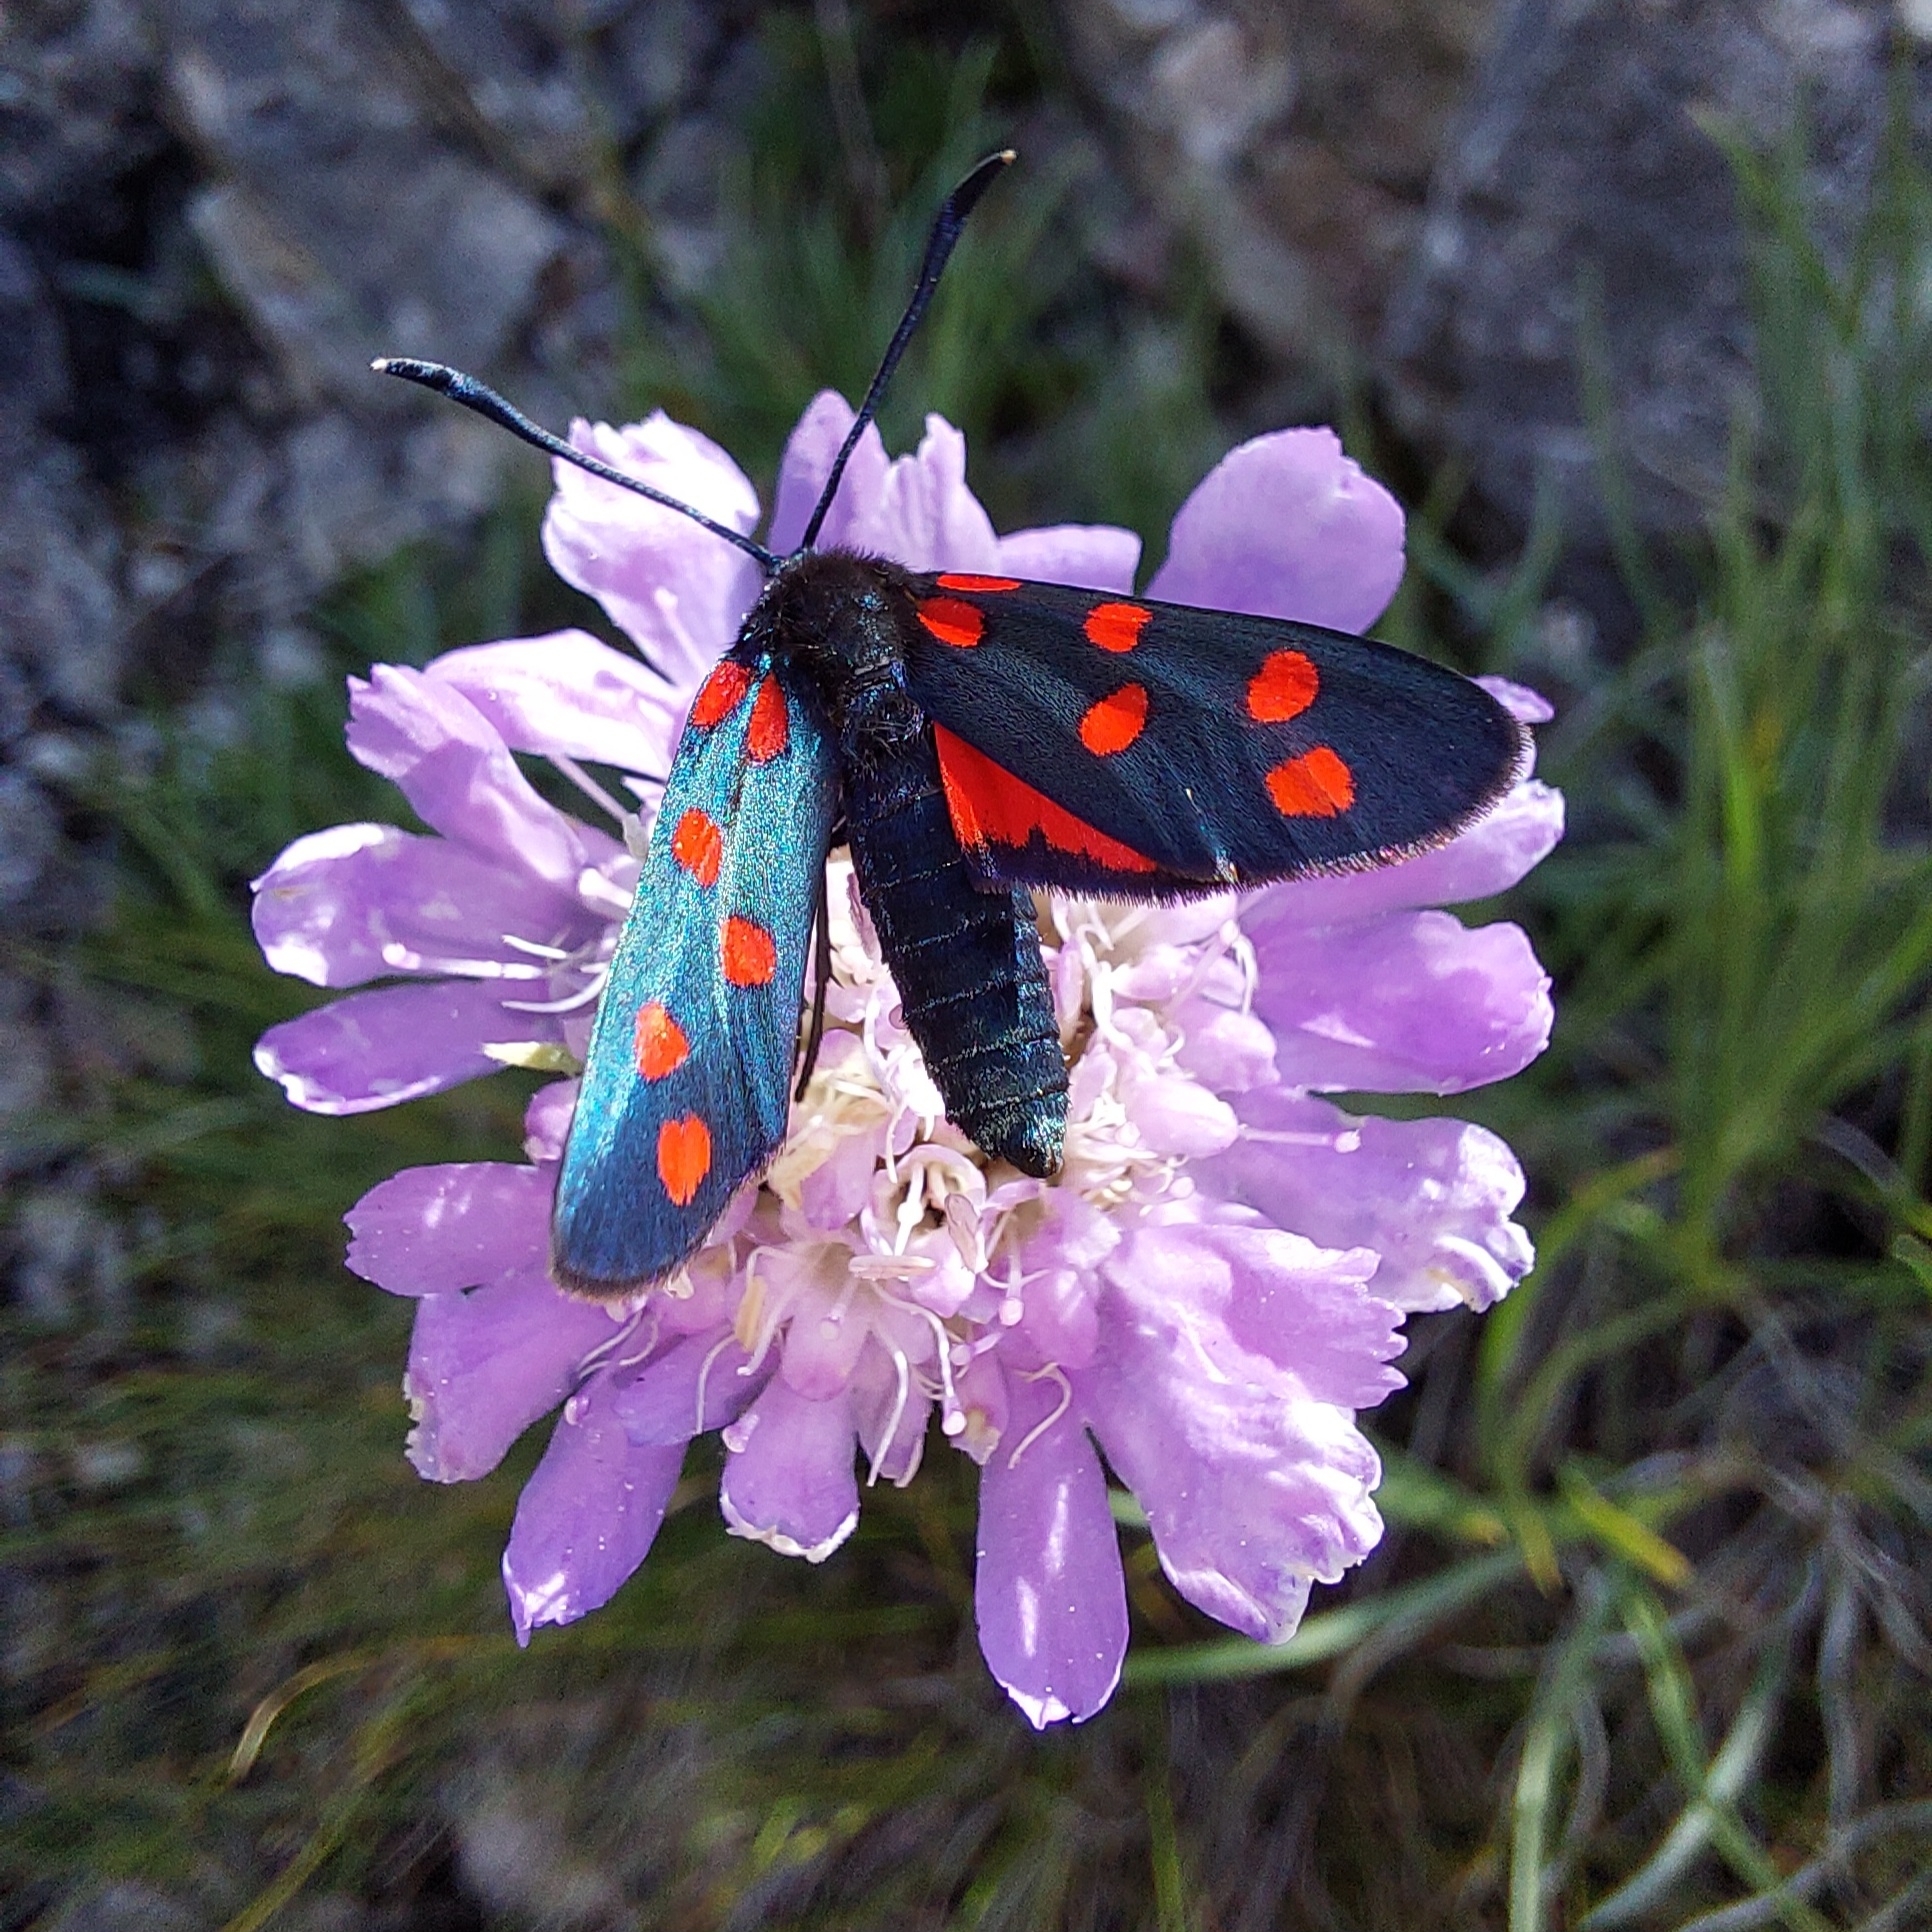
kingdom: Animalia
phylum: Arthropoda
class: Insecta
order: Lepidoptera
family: Zygaenidae
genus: Zygaena
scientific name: Zygaena transalpina
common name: Southern six spot burnet
